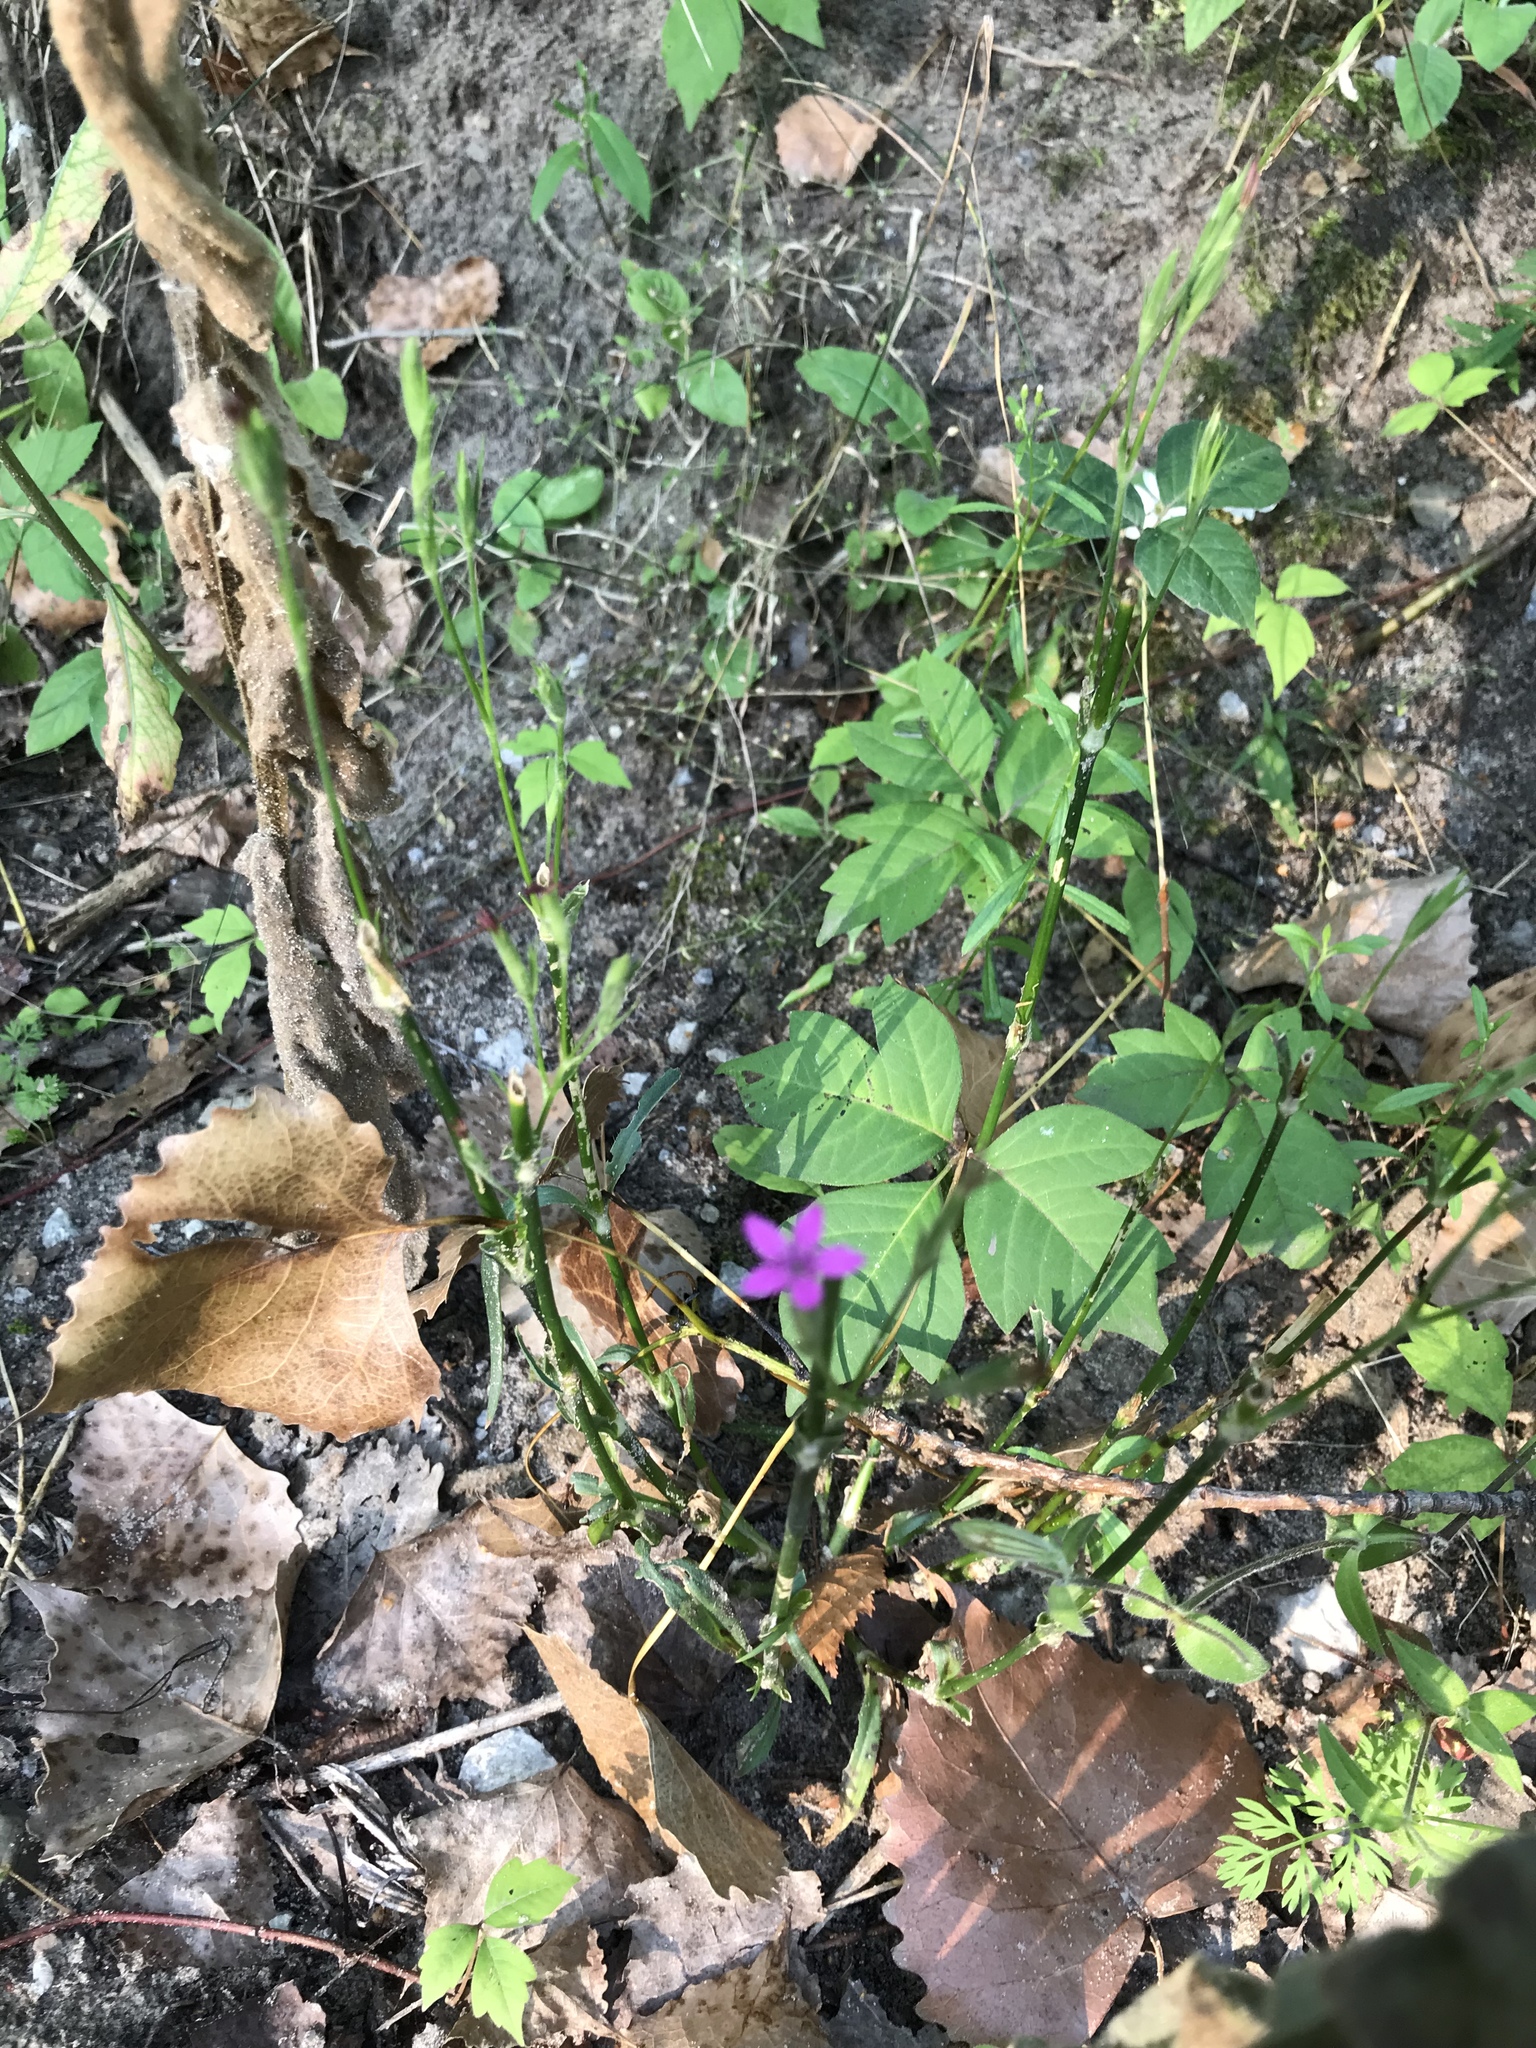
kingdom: Plantae
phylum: Tracheophyta
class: Magnoliopsida
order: Caryophyllales
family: Caryophyllaceae
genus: Dianthus
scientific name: Dianthus armeria
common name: Deptford pink
